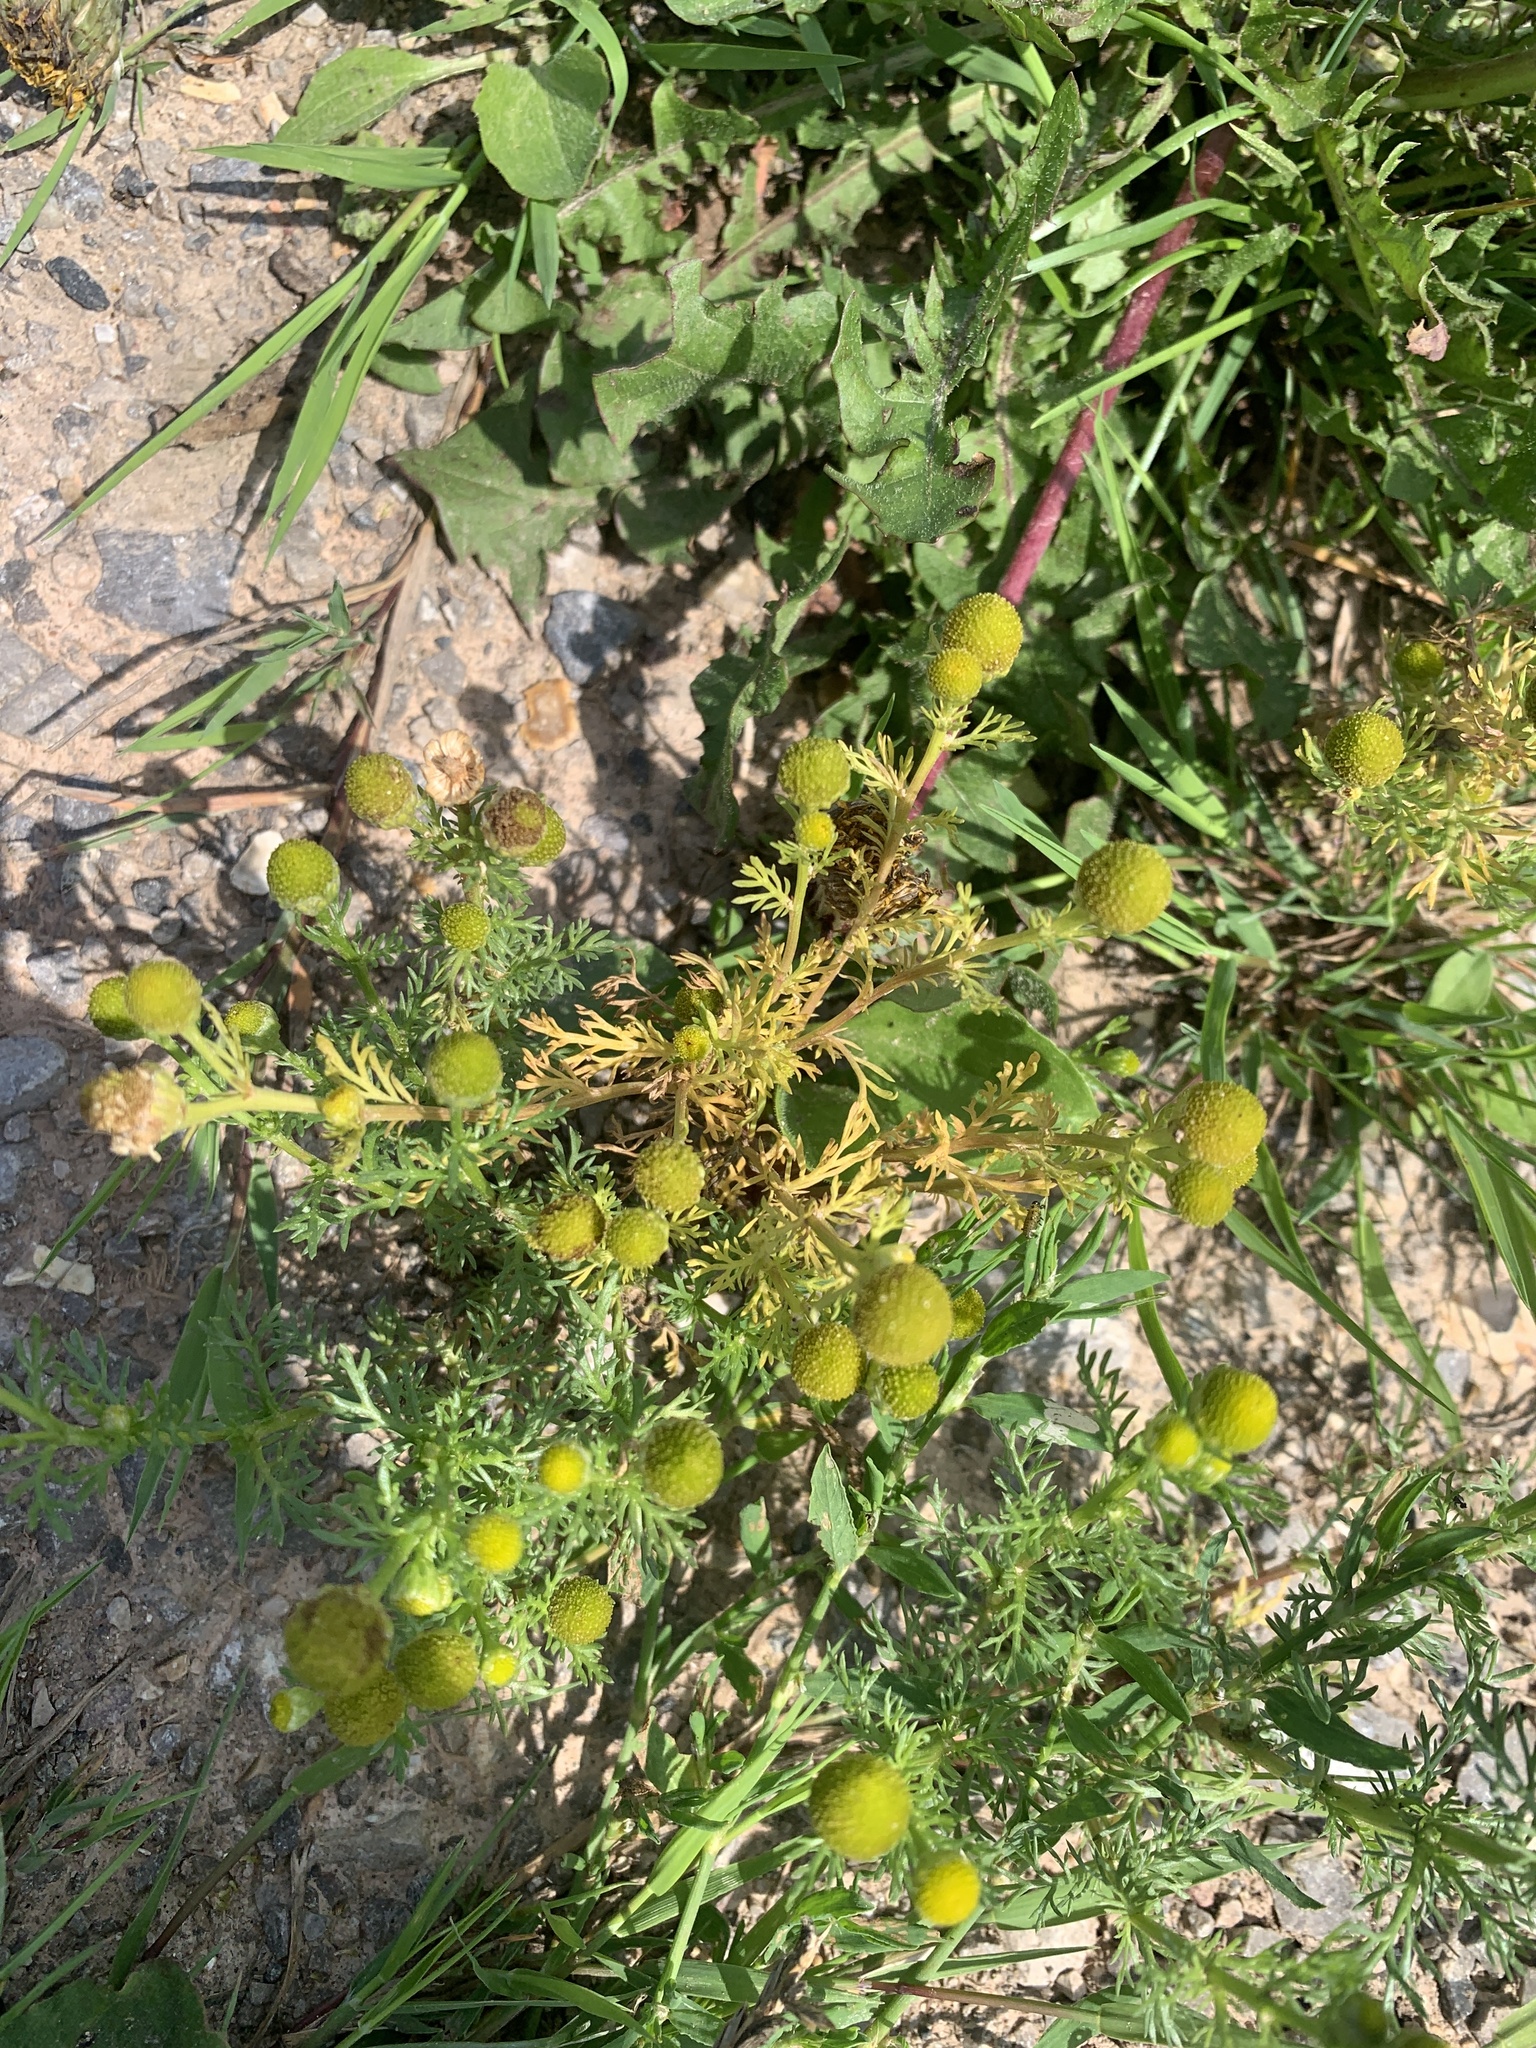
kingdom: Plantae
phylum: Tracheophyta
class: Magnoliopsida
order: Asterales
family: Asteraceae
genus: Matricaria
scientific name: Matricaria discoidea
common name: Disc mayweed
